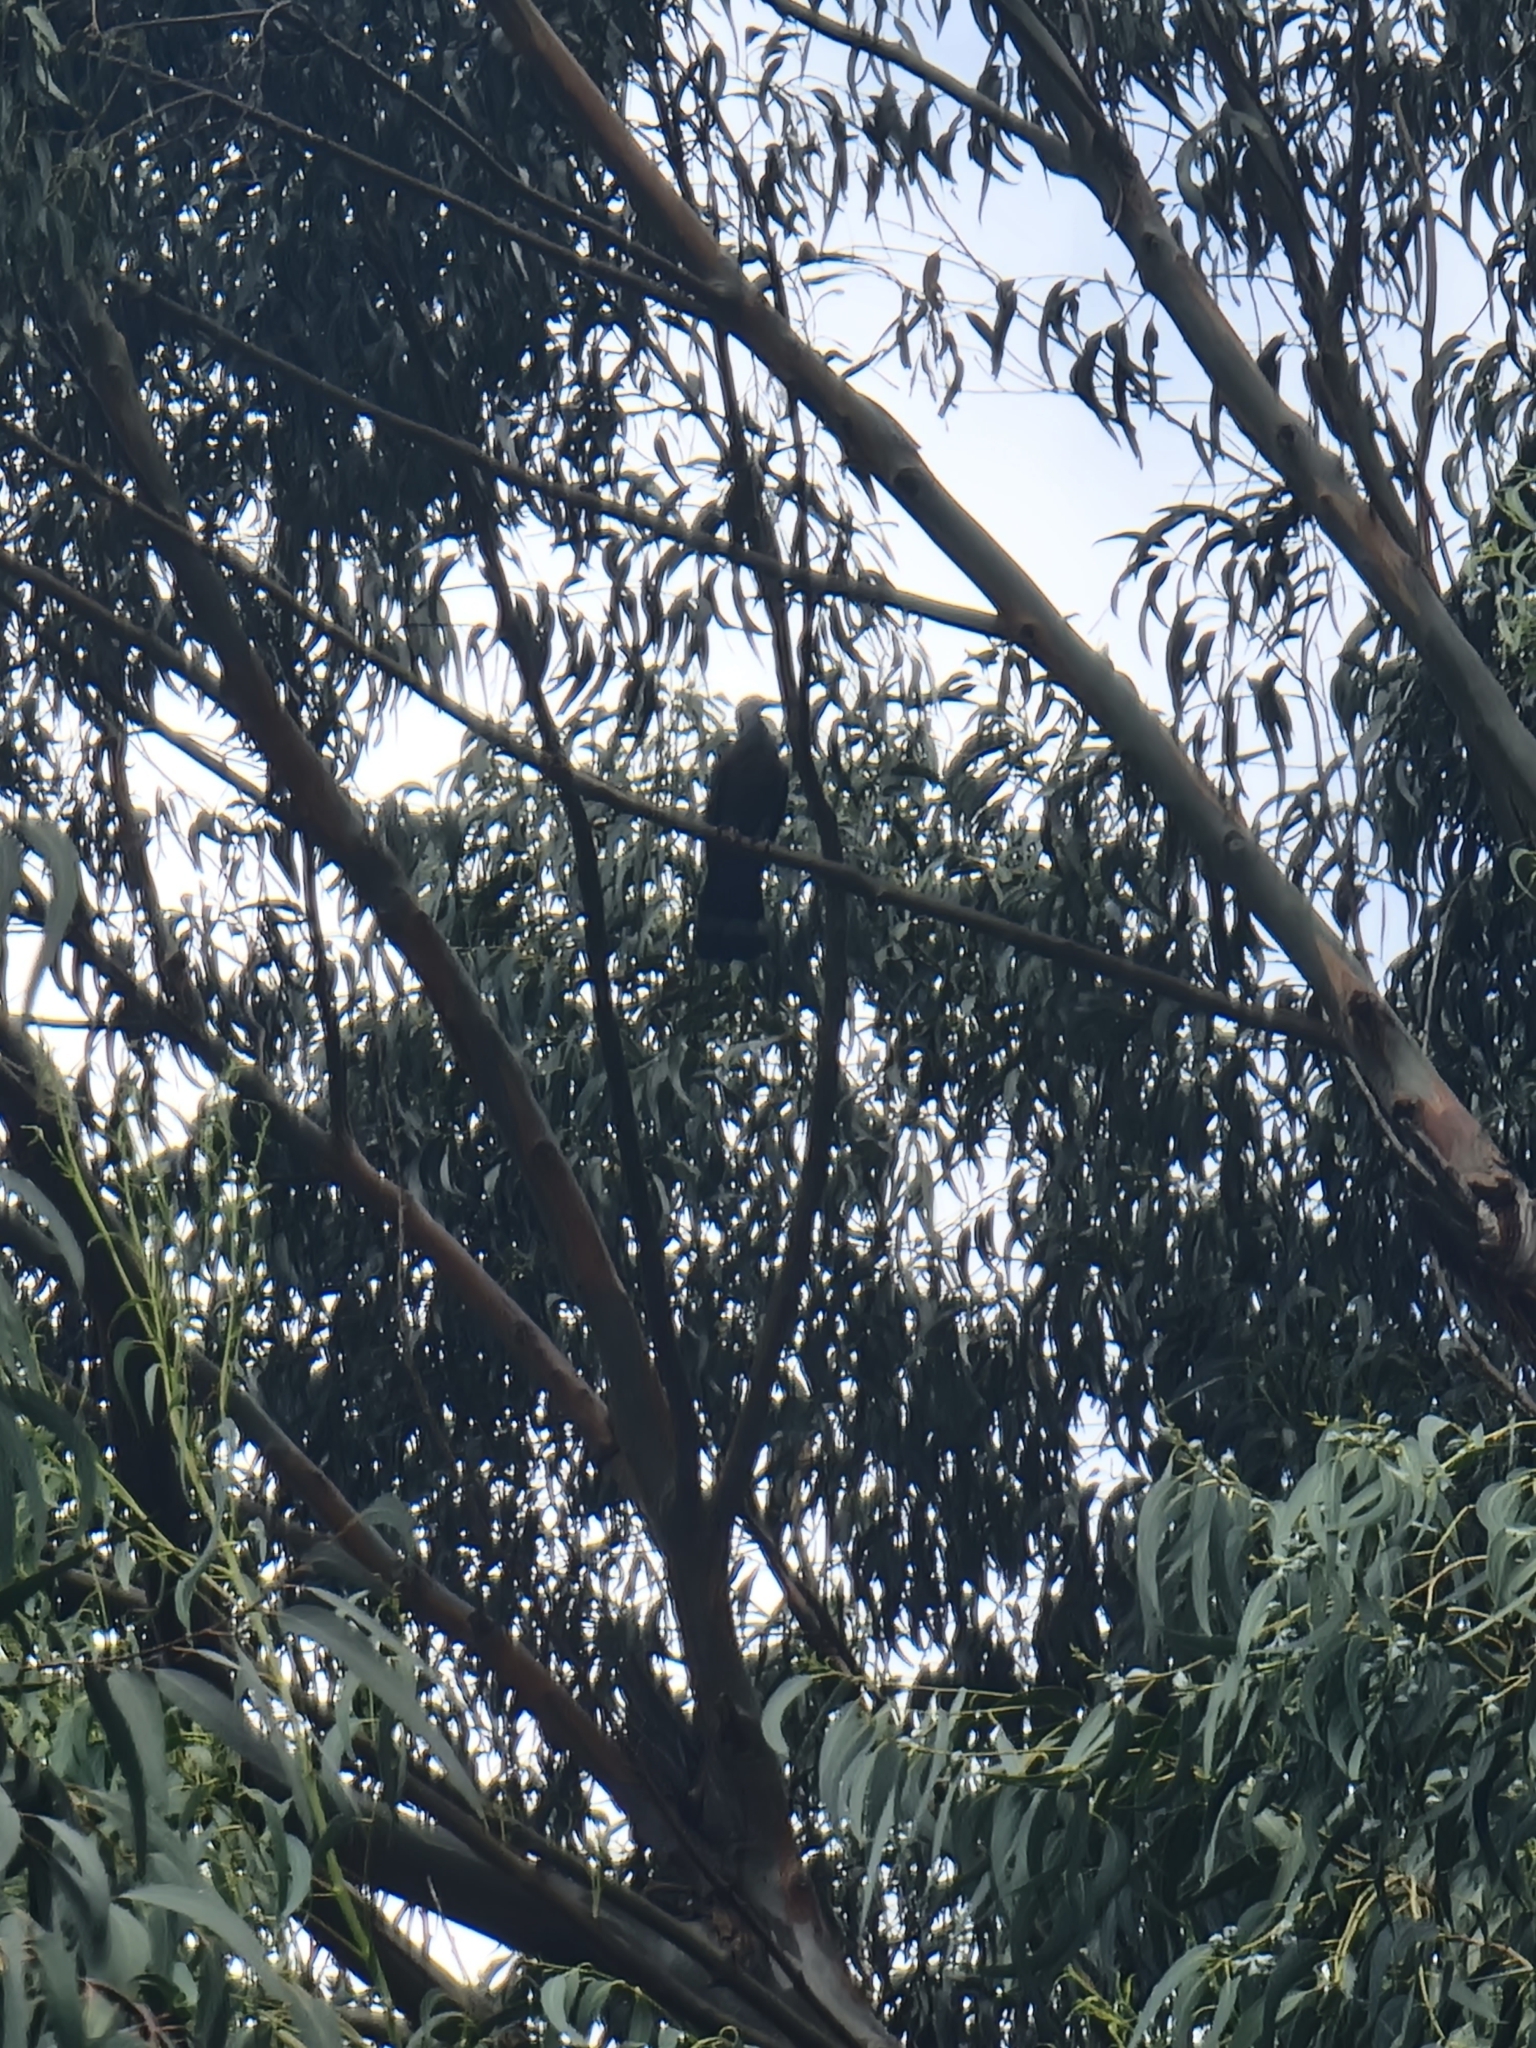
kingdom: Animalia
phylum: Chordata
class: Aves
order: Columbiformes
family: Columbidae
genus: Columba
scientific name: Columba trocaz
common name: Trocaz pigeon
